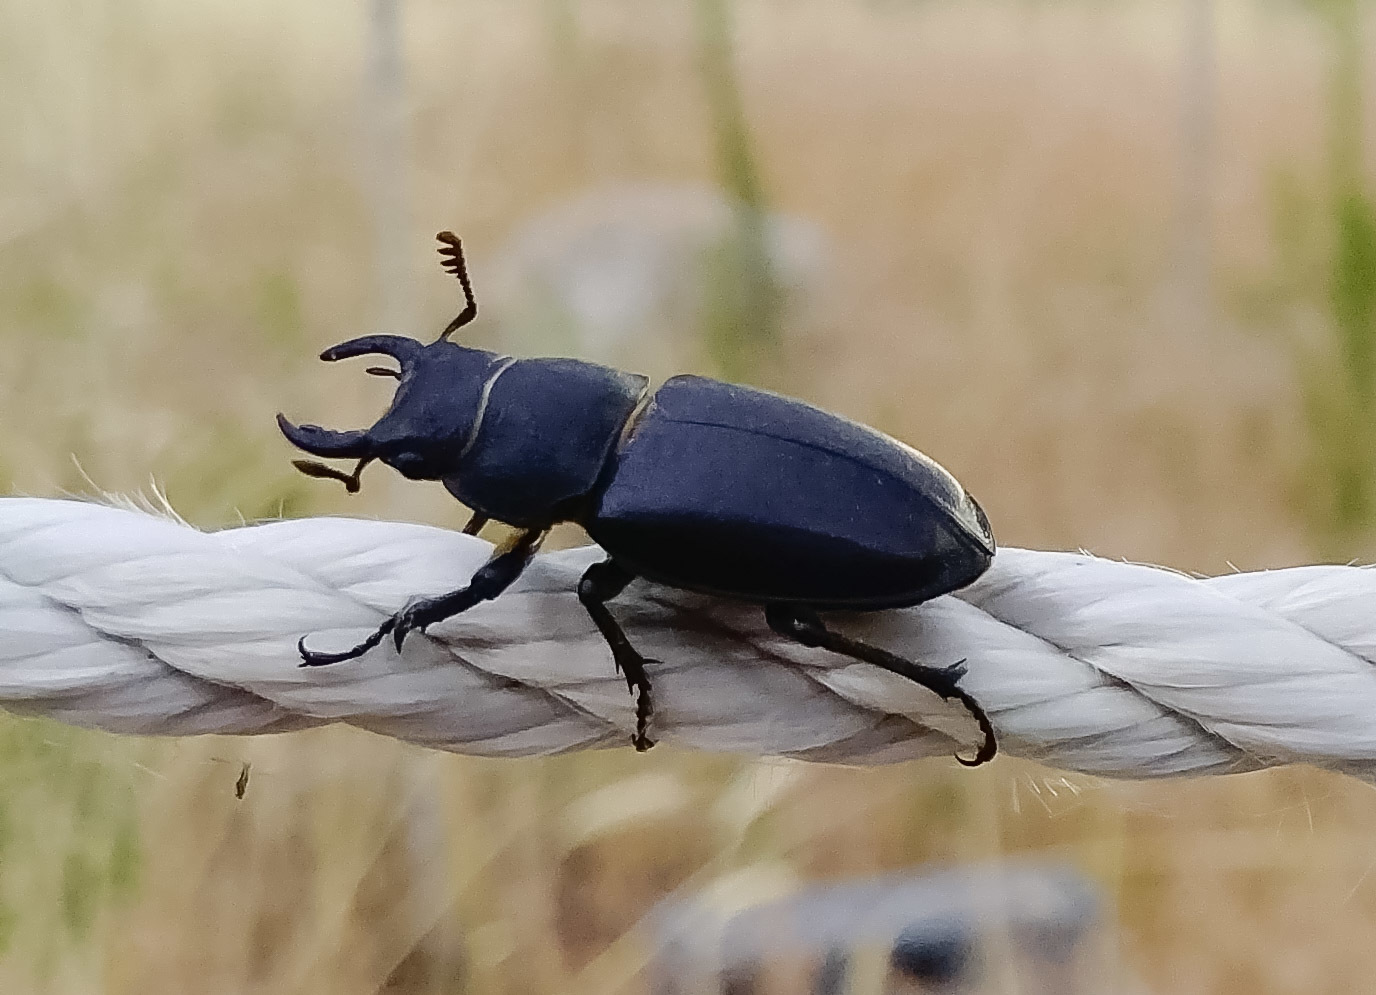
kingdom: Animalia
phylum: Arthropoda
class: Insecta
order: Coleoptera
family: Lucanidae
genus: Lucanus
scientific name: Lucanus mazama
